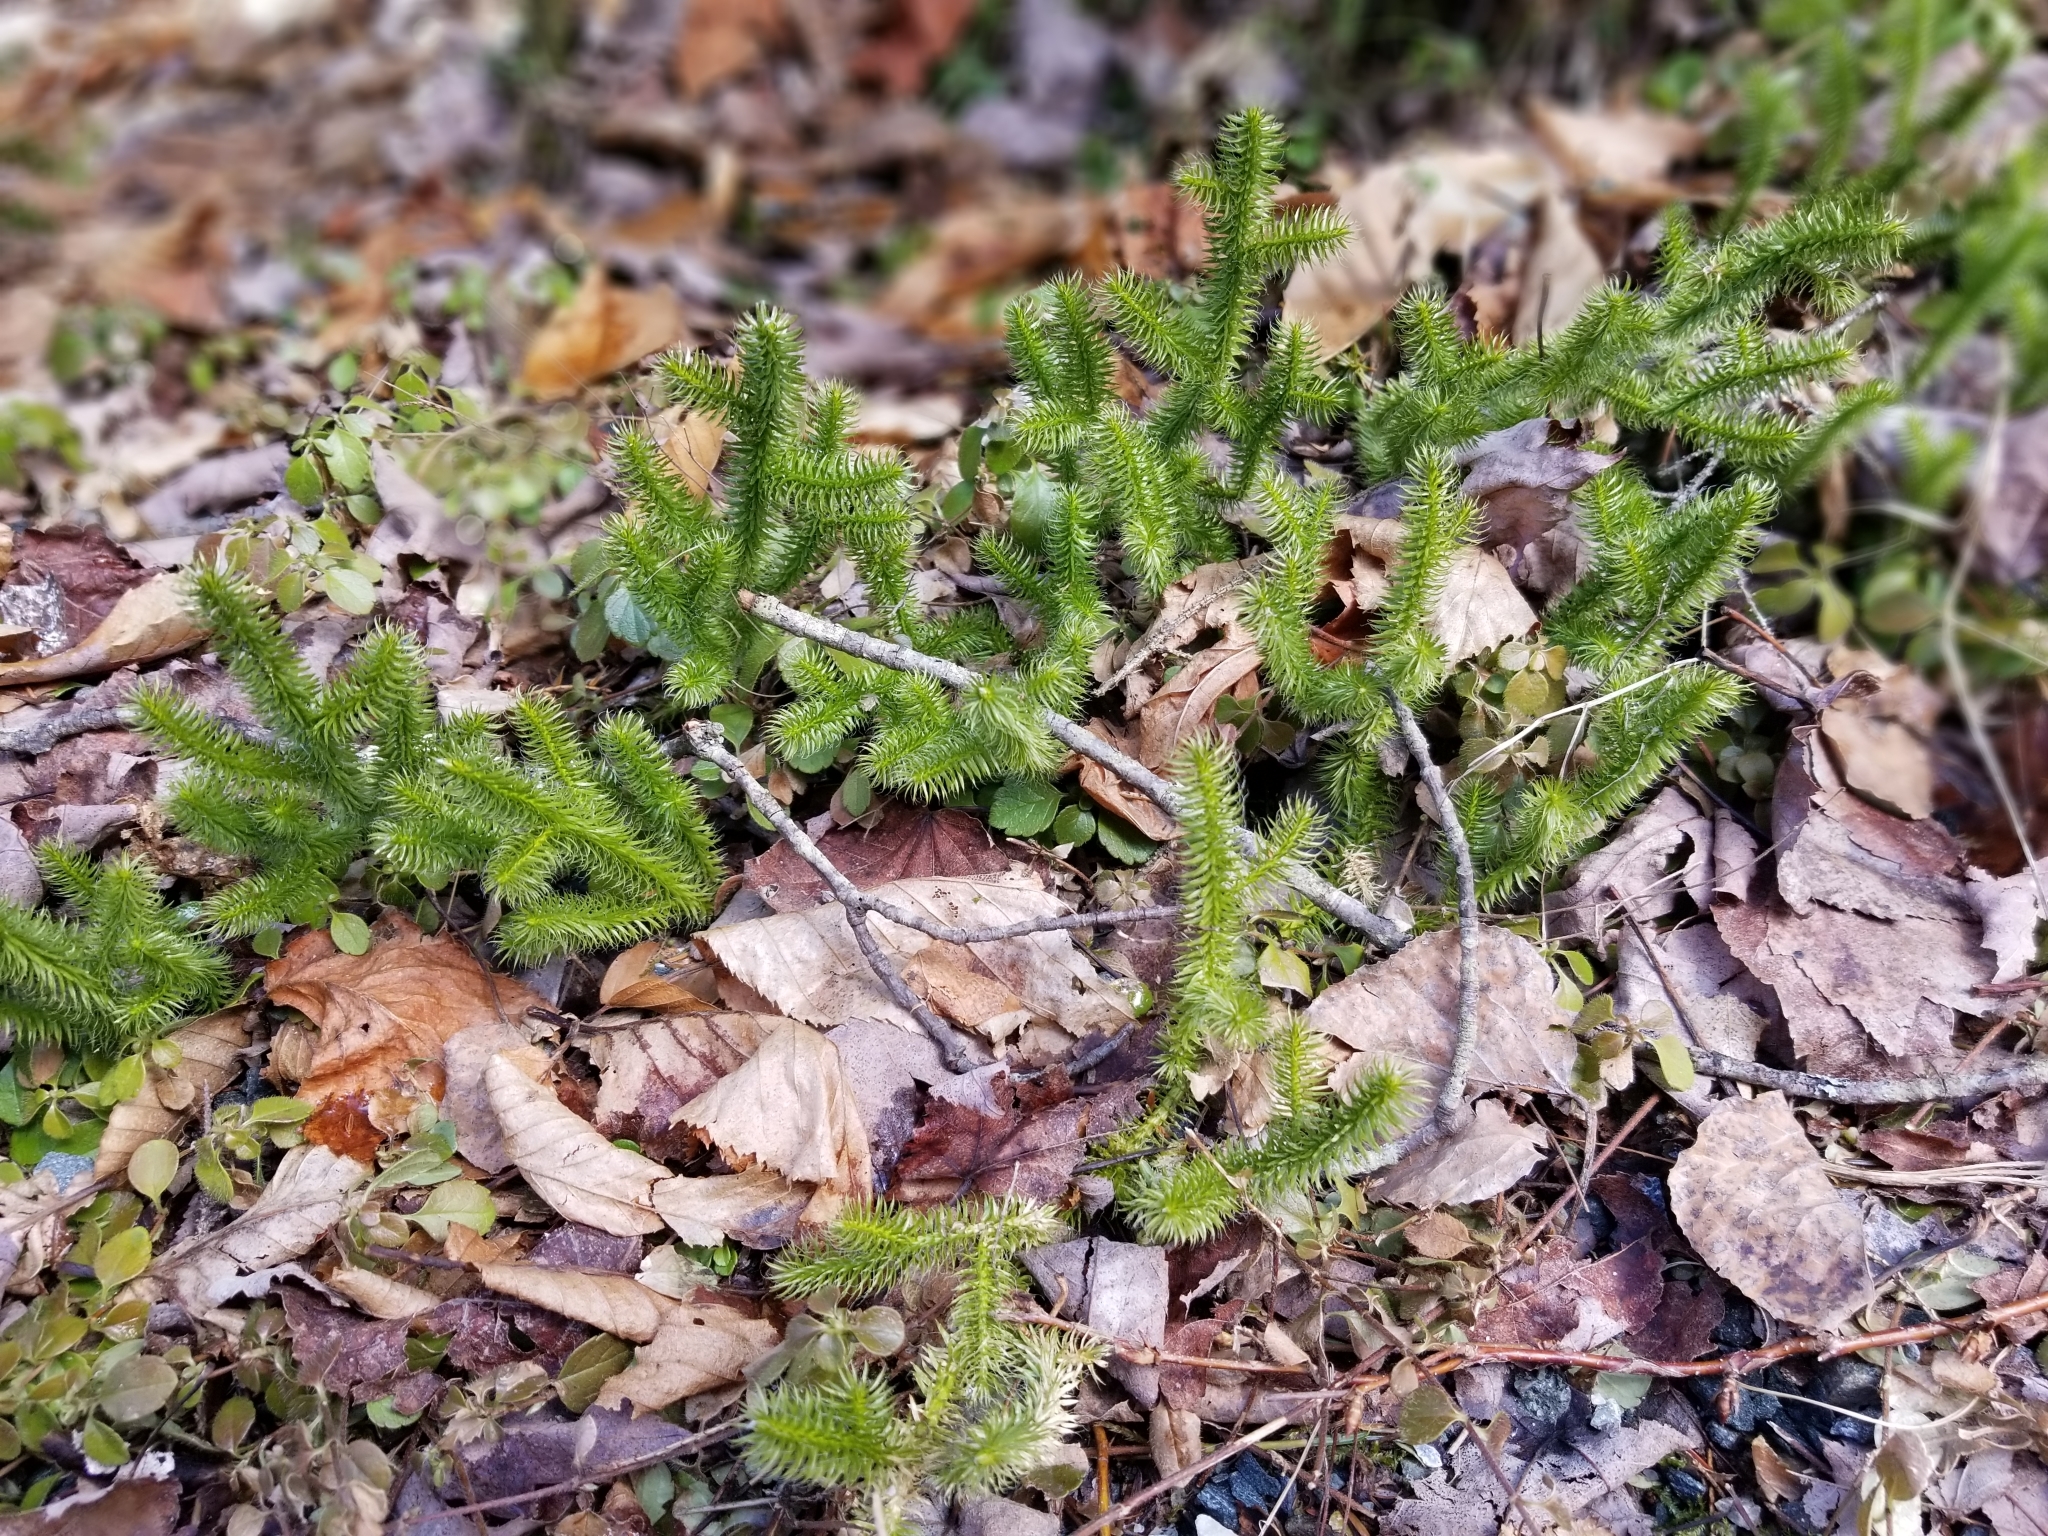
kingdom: Plantae
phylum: Tracheophyta
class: Lycopodiopsida
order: Lycopodiales
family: Lycopodiaceae
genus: Lycopodium
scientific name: Lycopodium clavatum
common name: Stag's-horn clubmoss
